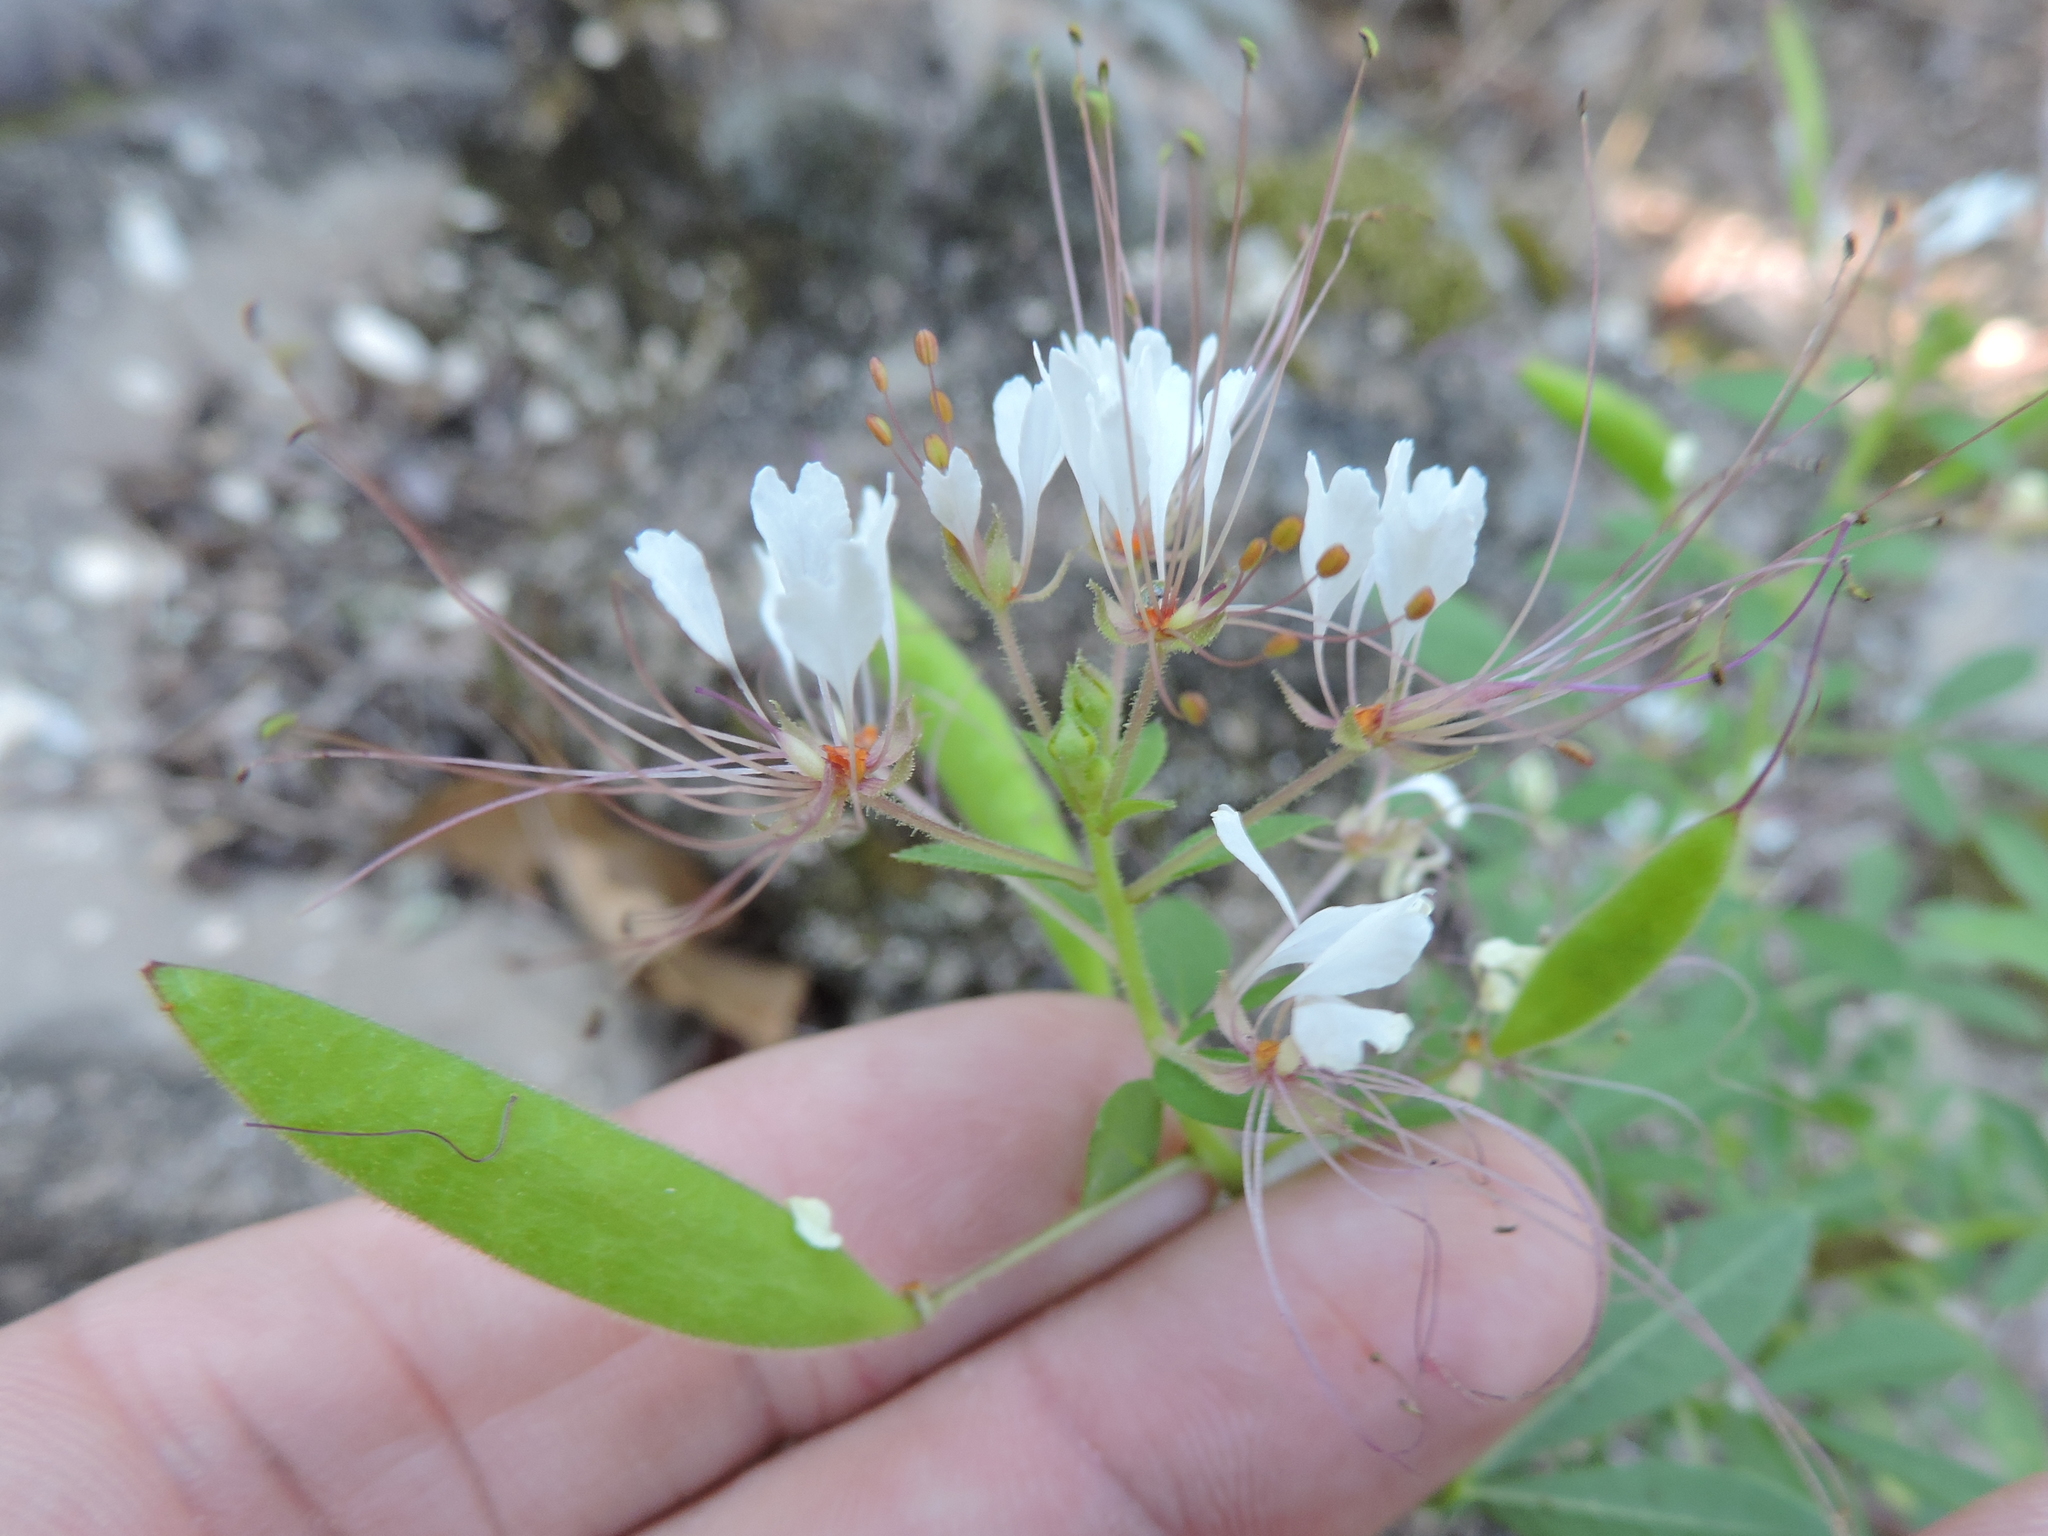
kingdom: Plantae
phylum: Tracheophyta
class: Magnoliopsida
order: Brassicales
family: Cleomaceae
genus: Polanisia
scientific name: Polanisia dodecandra
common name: Clammyweed
